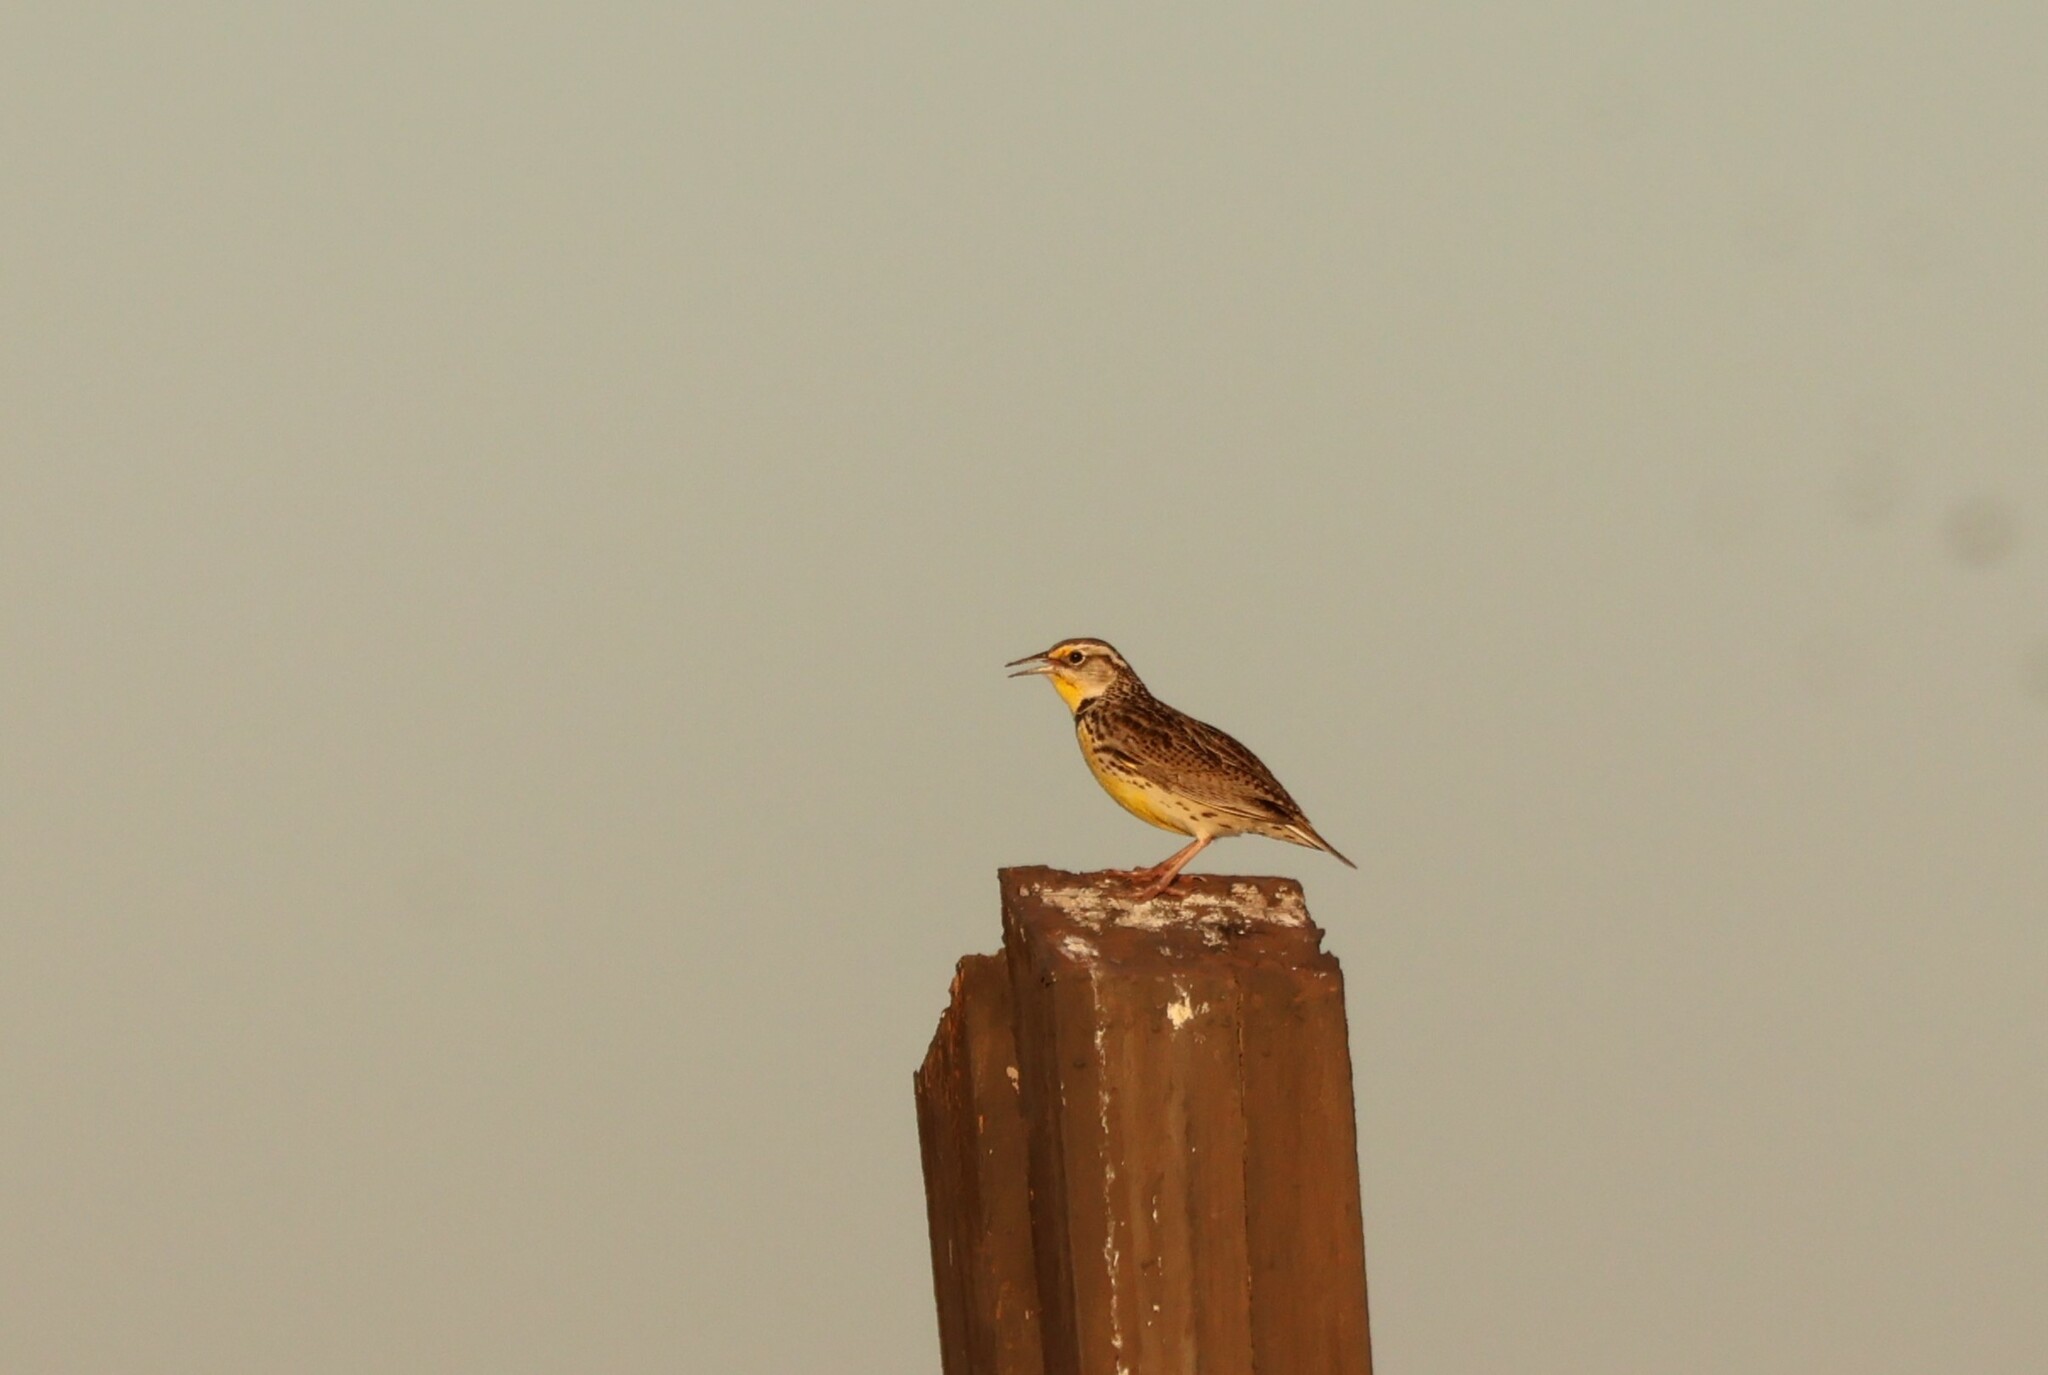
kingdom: Animalia
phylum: Chordata
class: Aves
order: Passeriformes
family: Icteridae
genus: Sturnella
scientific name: Sturnella neglecta
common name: Western meadowlark
